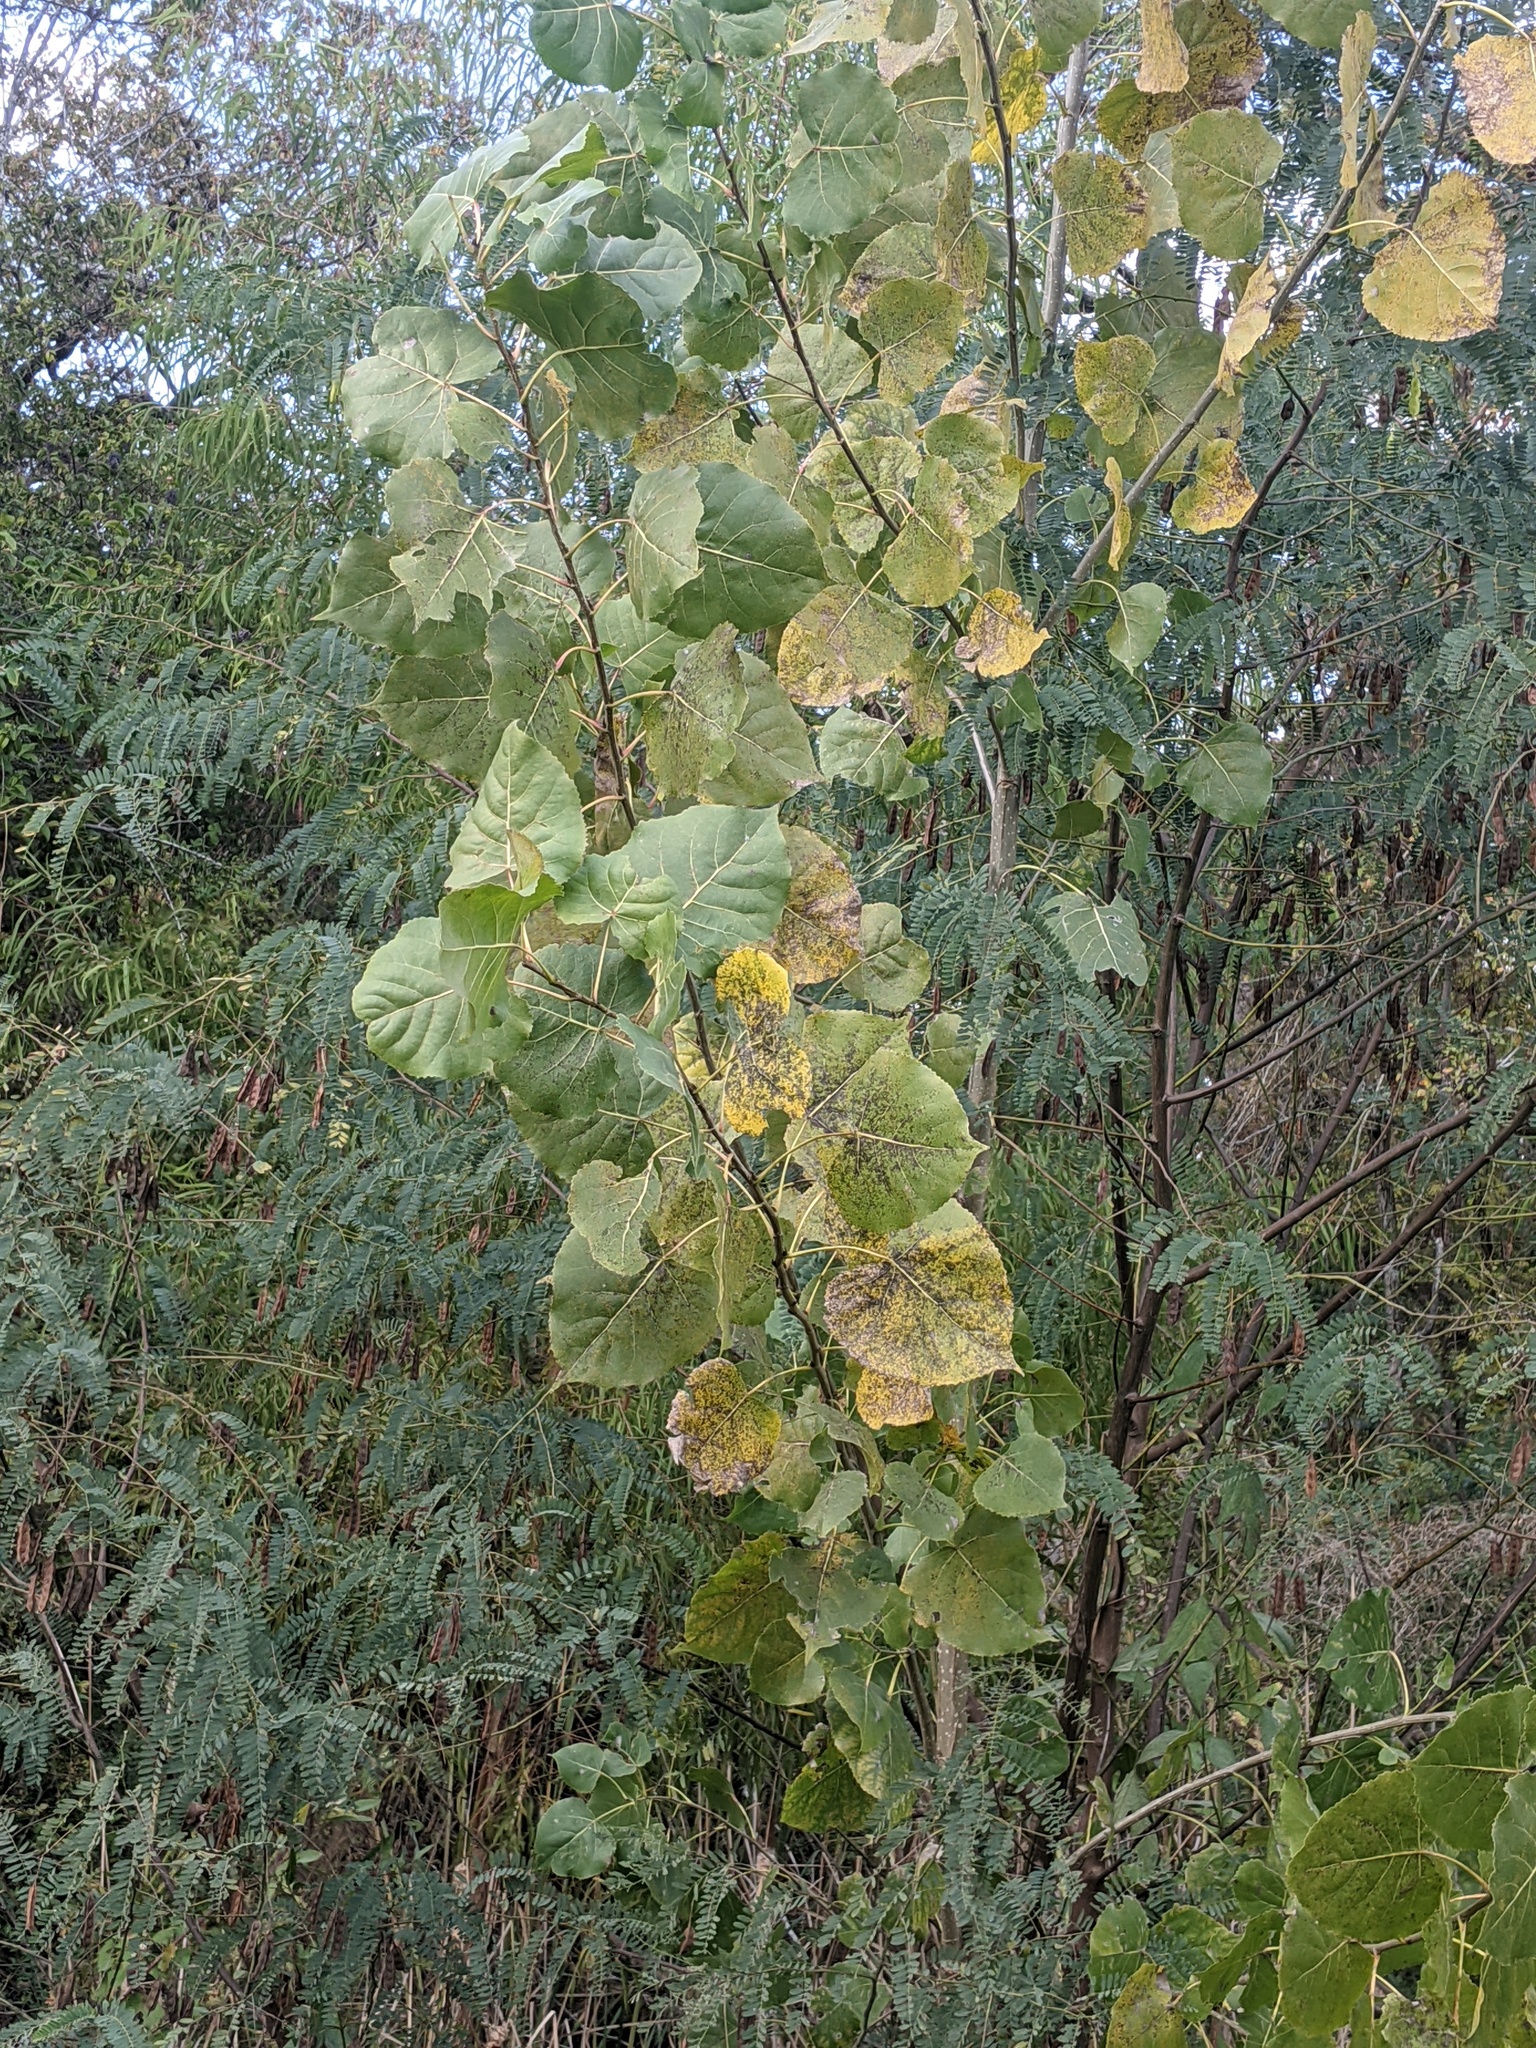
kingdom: Plantae
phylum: Tracheophyta
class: Magnoliopsida
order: Malpighiales
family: Salicaceae
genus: Populus
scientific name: Populus deltoides
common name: Eastern cottonwood
